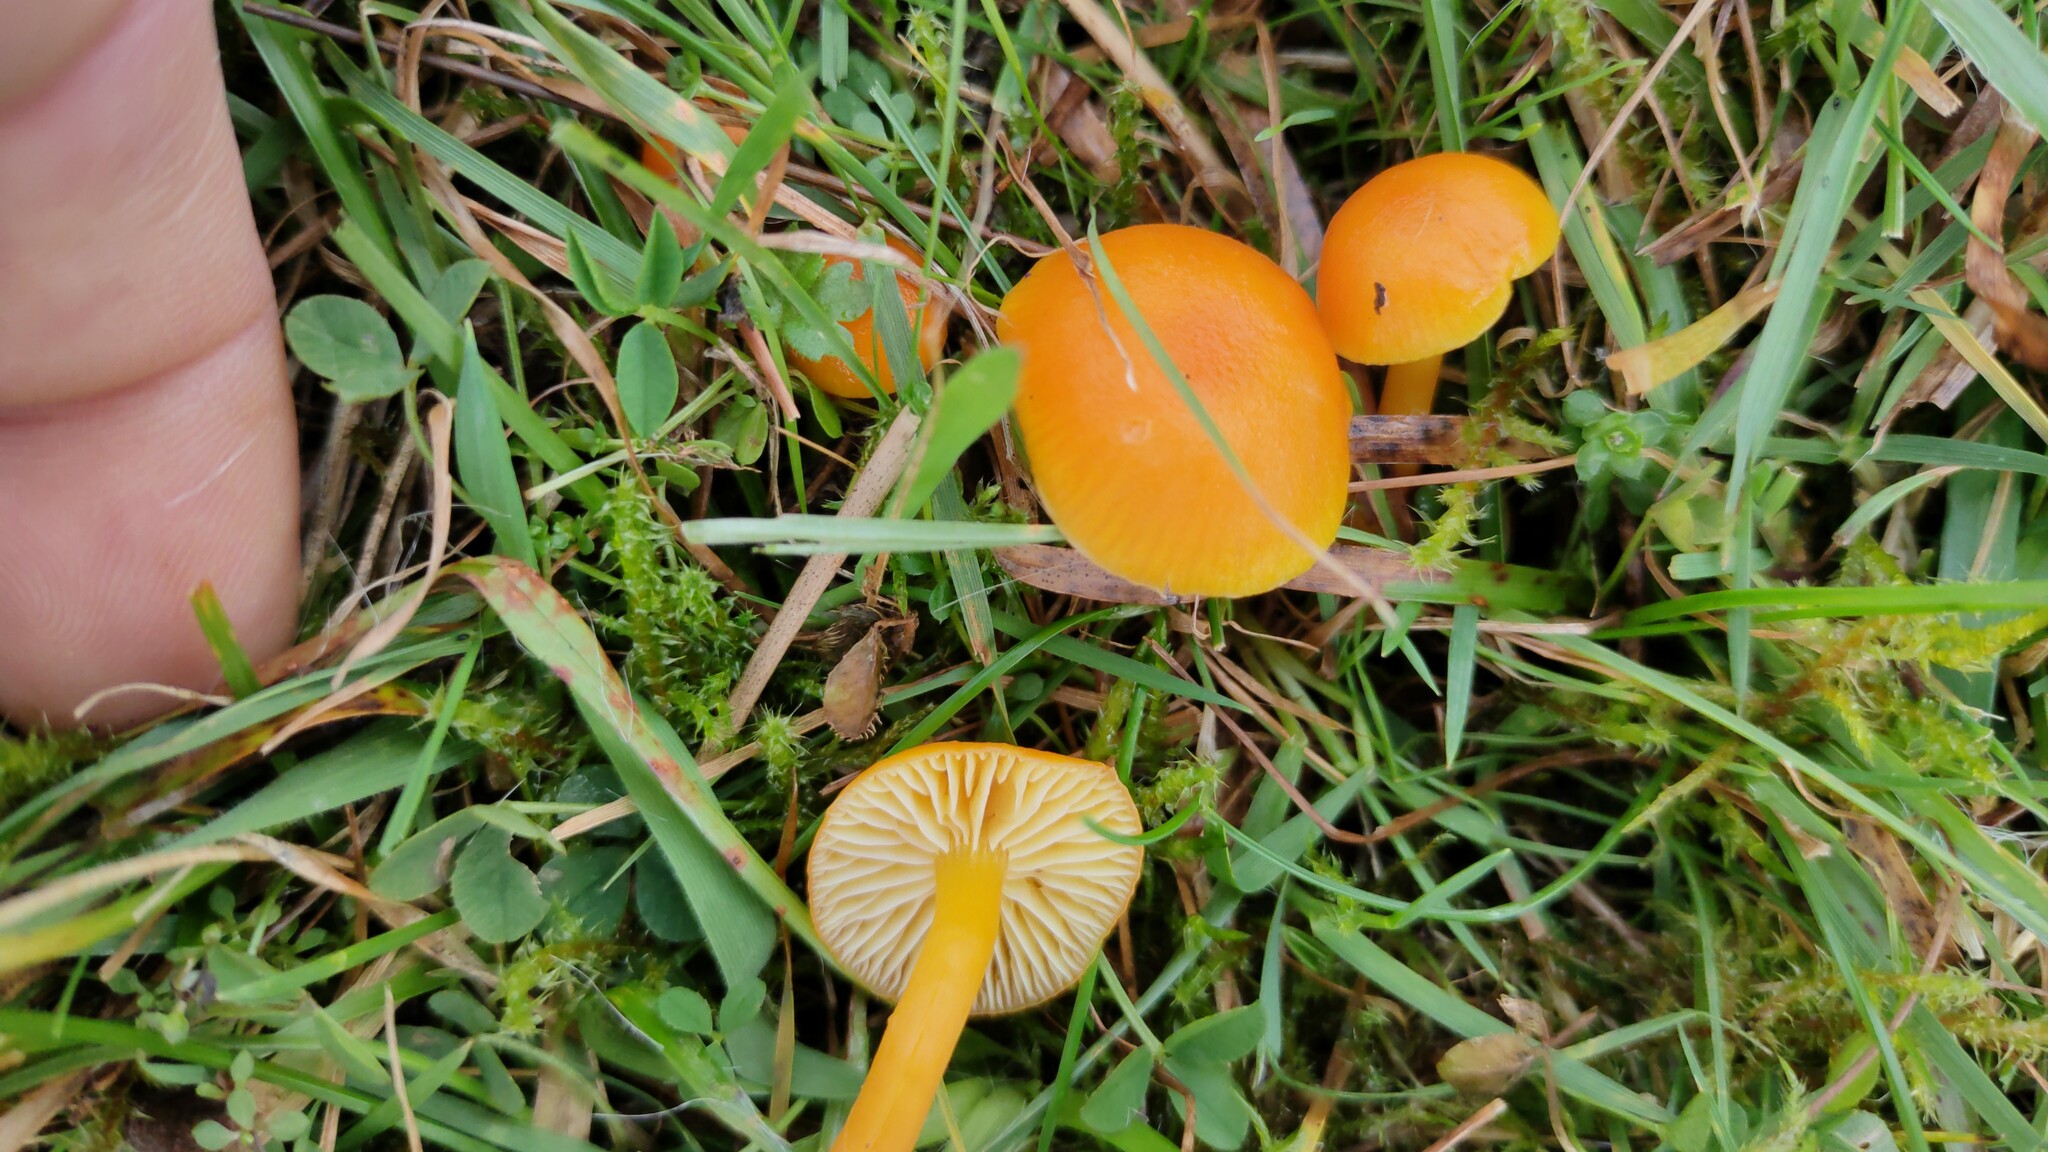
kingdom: Fungi
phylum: Basidiomycota
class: Agaricomycetes
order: Agaricales
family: Hygrophoraceae
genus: Hygrocybe
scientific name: Hygrocybe ceracea
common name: Butter waxcap
